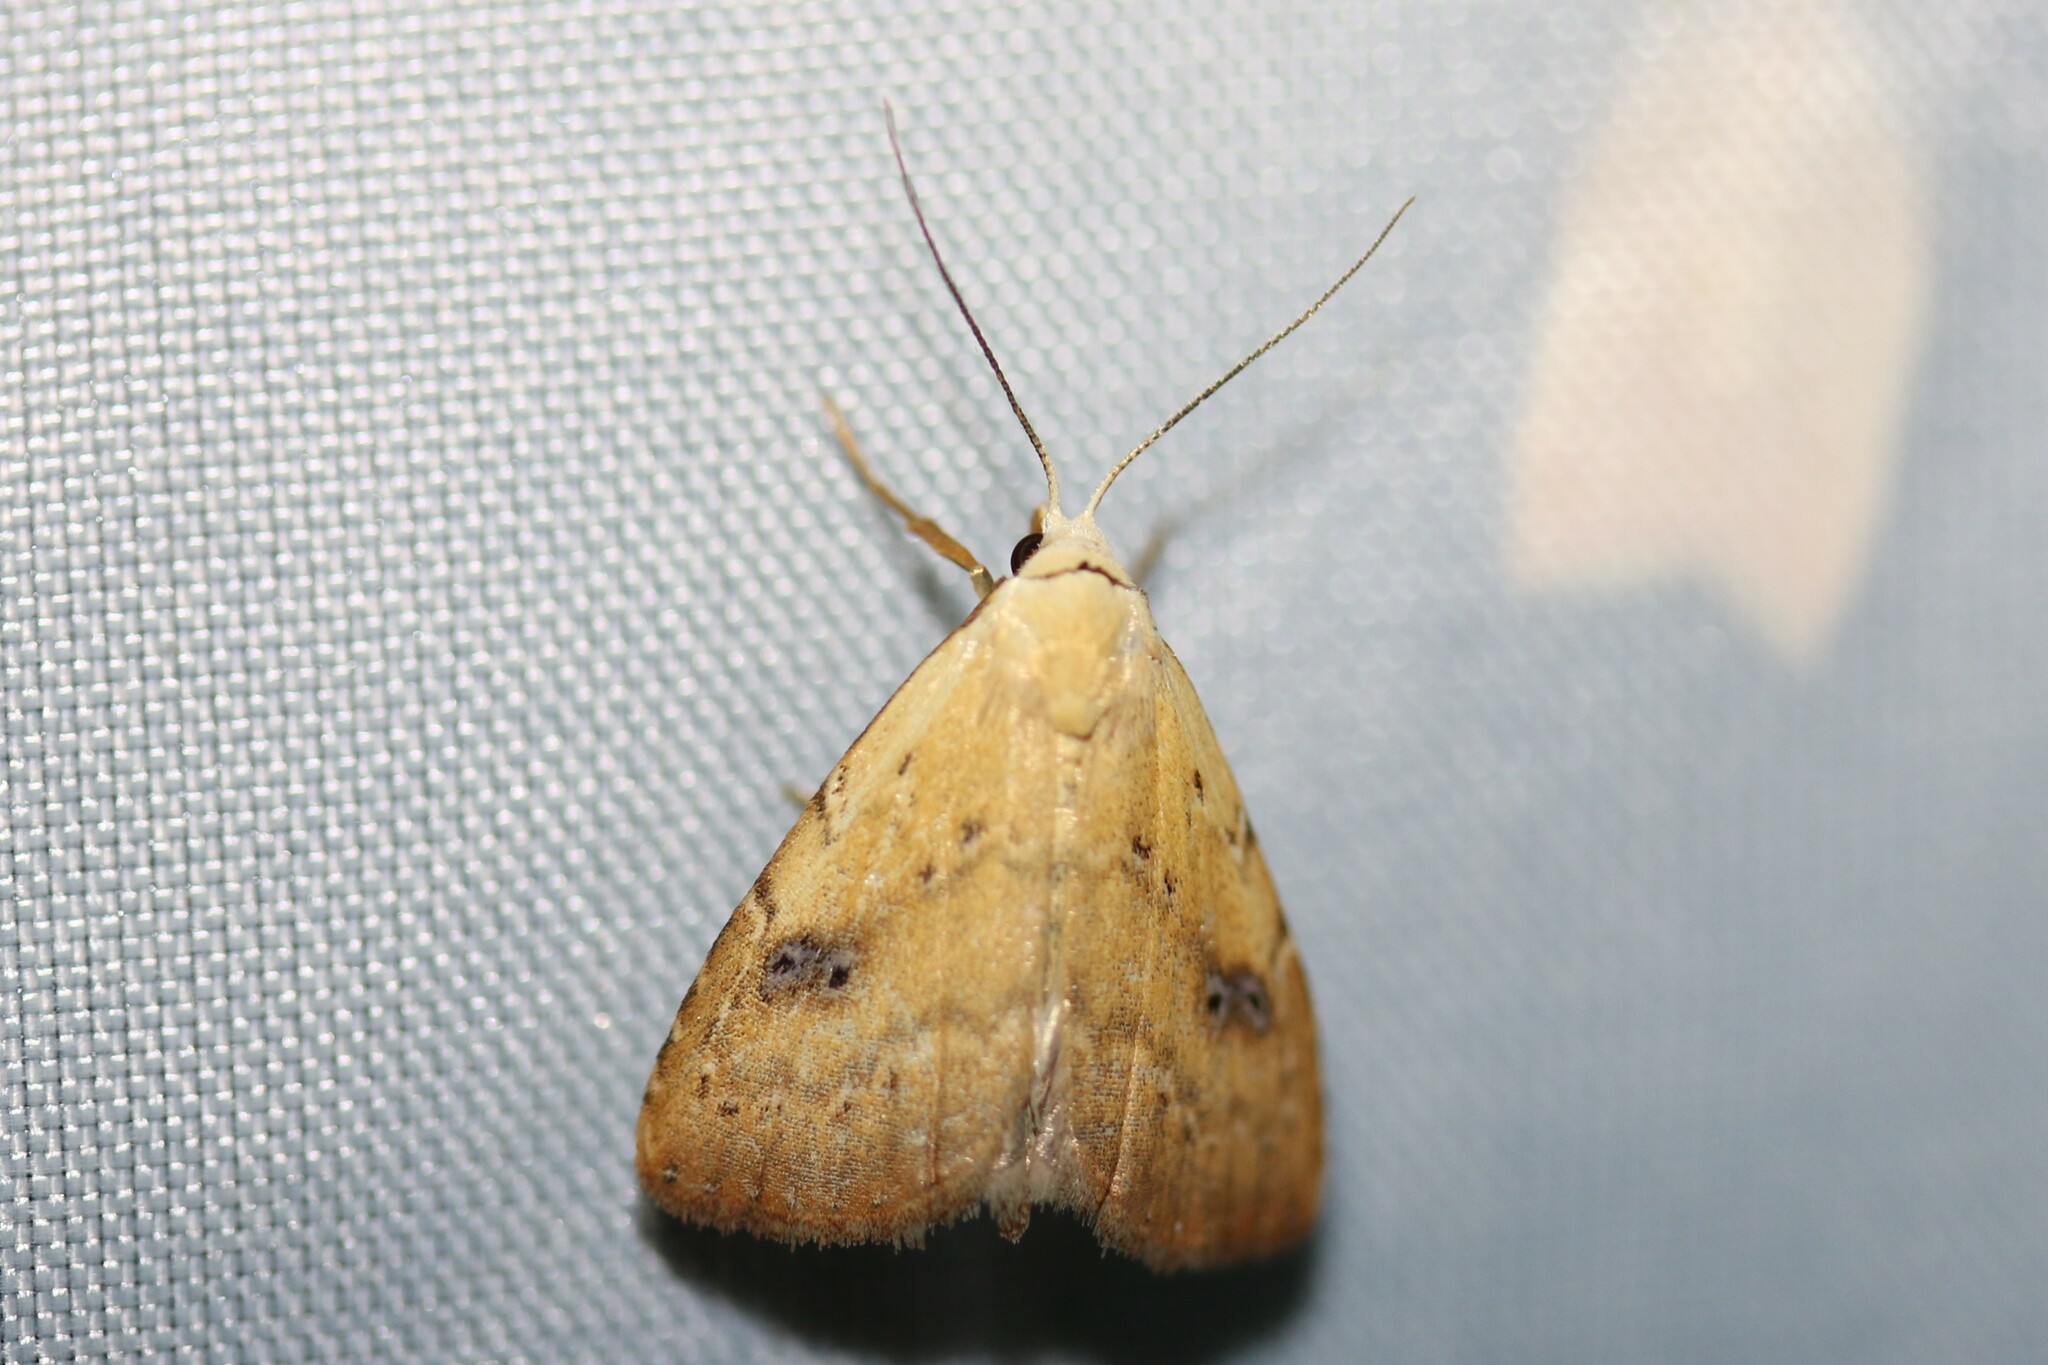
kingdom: Animalia
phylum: Arthropoda
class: Insecta
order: Lepidoptera
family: Erebidae
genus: Rivula
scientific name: Rivula sericealis
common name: Straw dot
